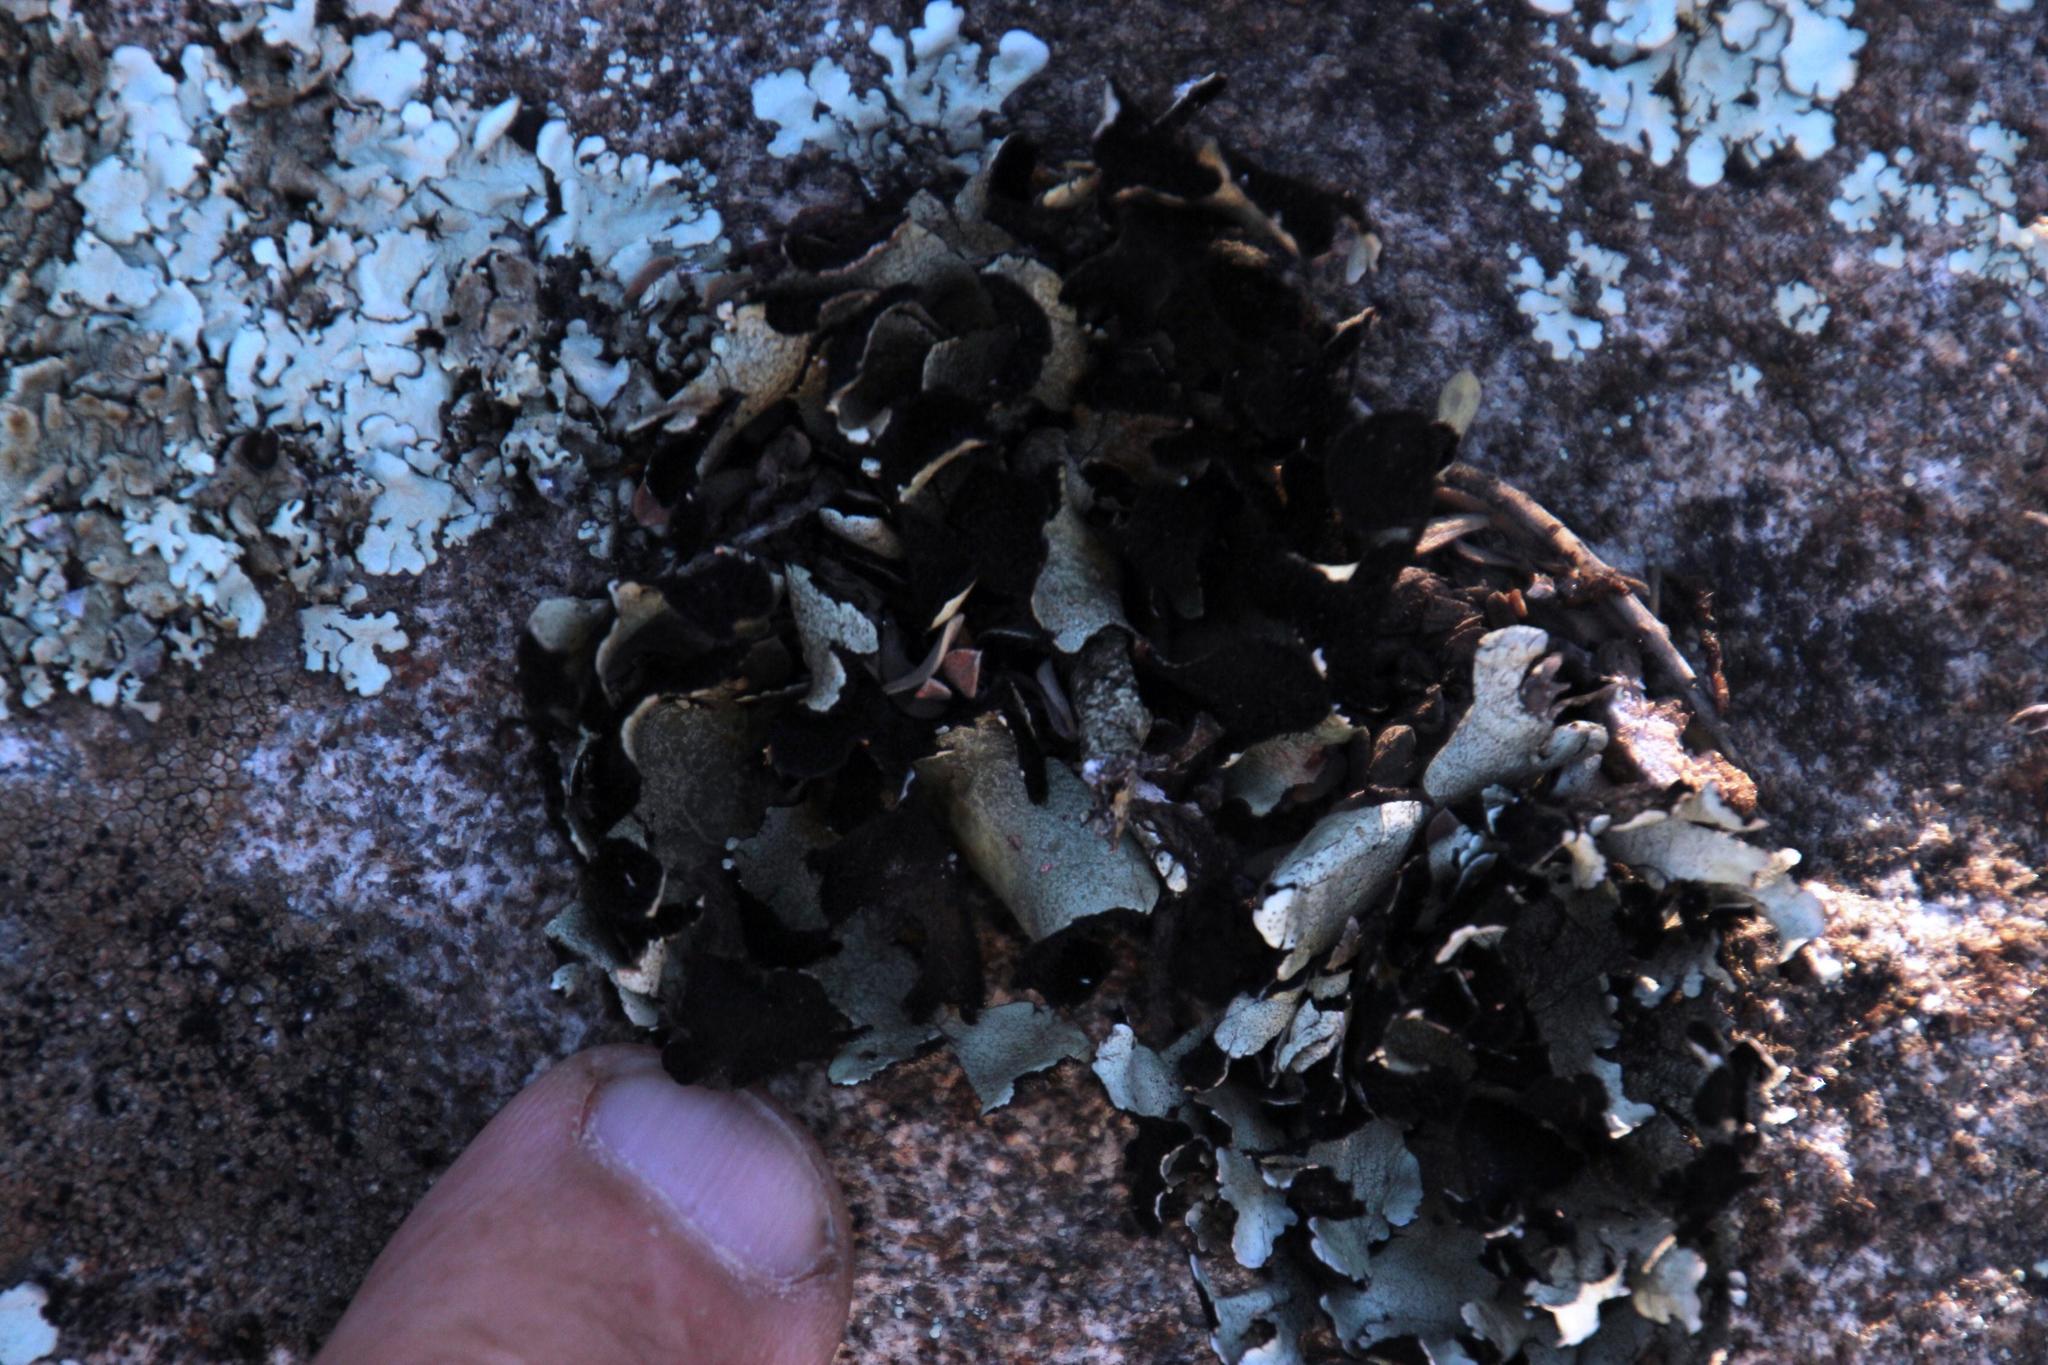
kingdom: Fungi
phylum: Ascomycota
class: Lecanoromycetes
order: Lecanorales
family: Parmeliaceae
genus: Xanthoparmelia
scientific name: Xanthoparmelia hottentotta
